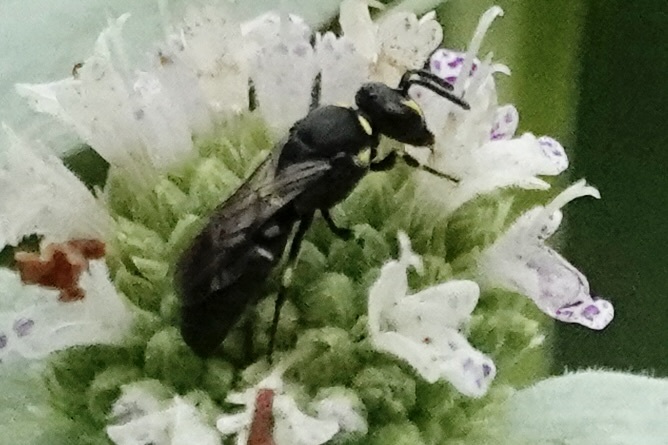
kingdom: Animalia
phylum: Arthropoda
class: Insecta
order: Hymenoptera
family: Colletidae
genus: Hylaeus
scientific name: Hylaeus modestus
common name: Yellow-faced bee
